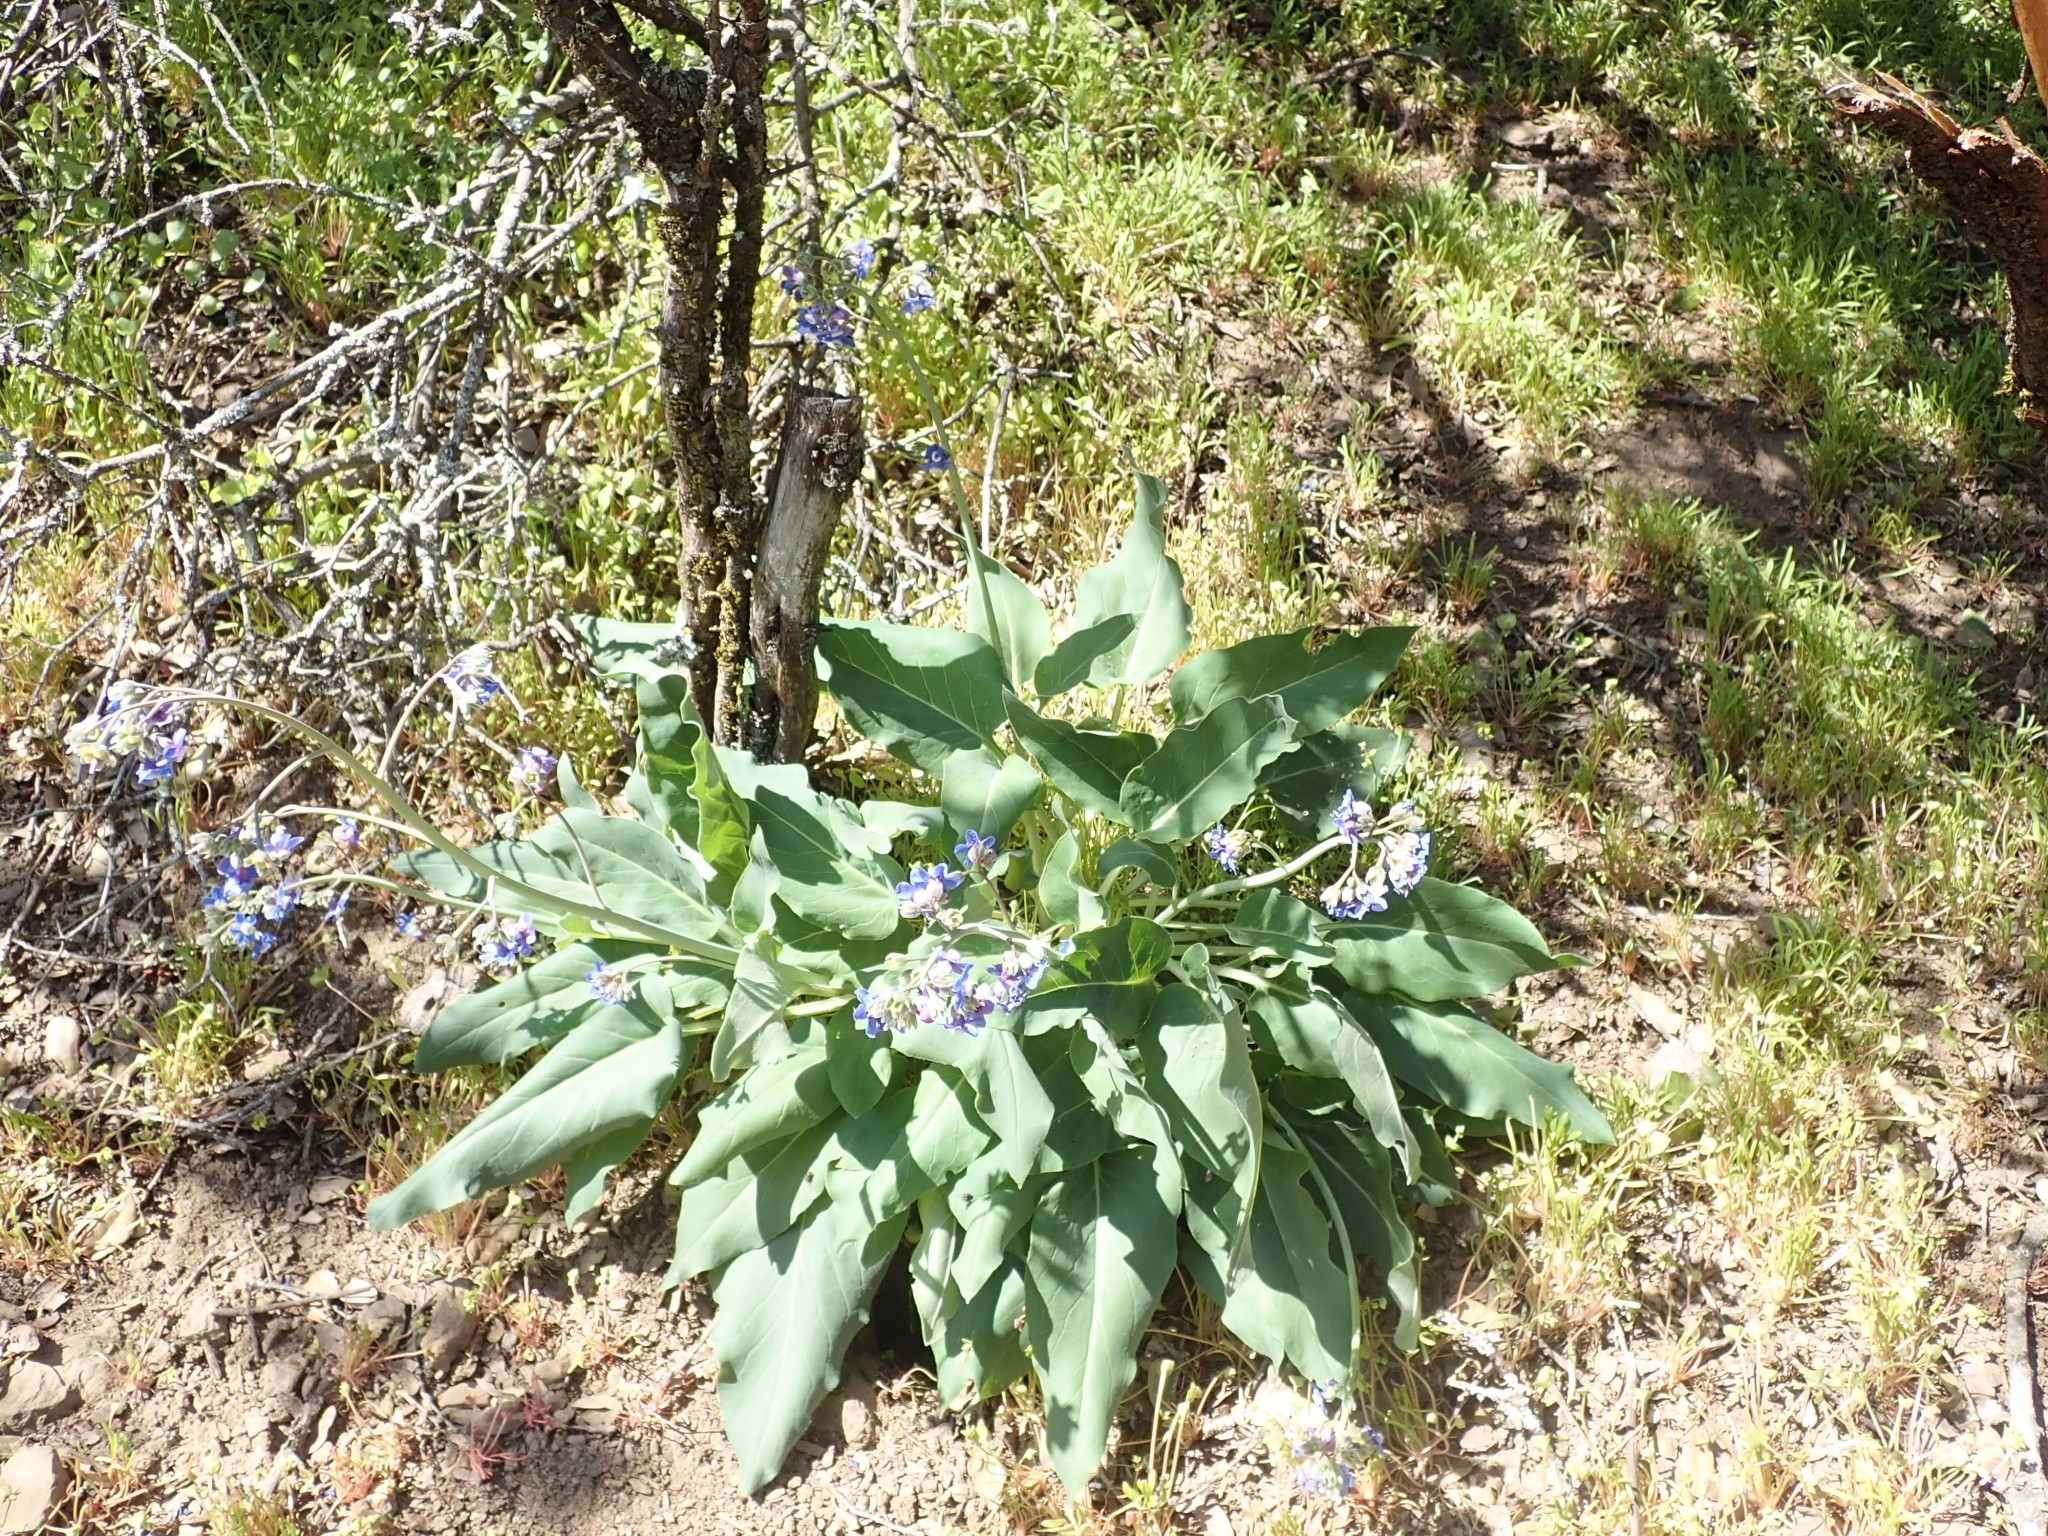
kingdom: Plantae
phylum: Tracheophyta
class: Magnoliopsida
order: Boraginales
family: Boraginaceae
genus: Adelinia
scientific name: Adelinia grande
